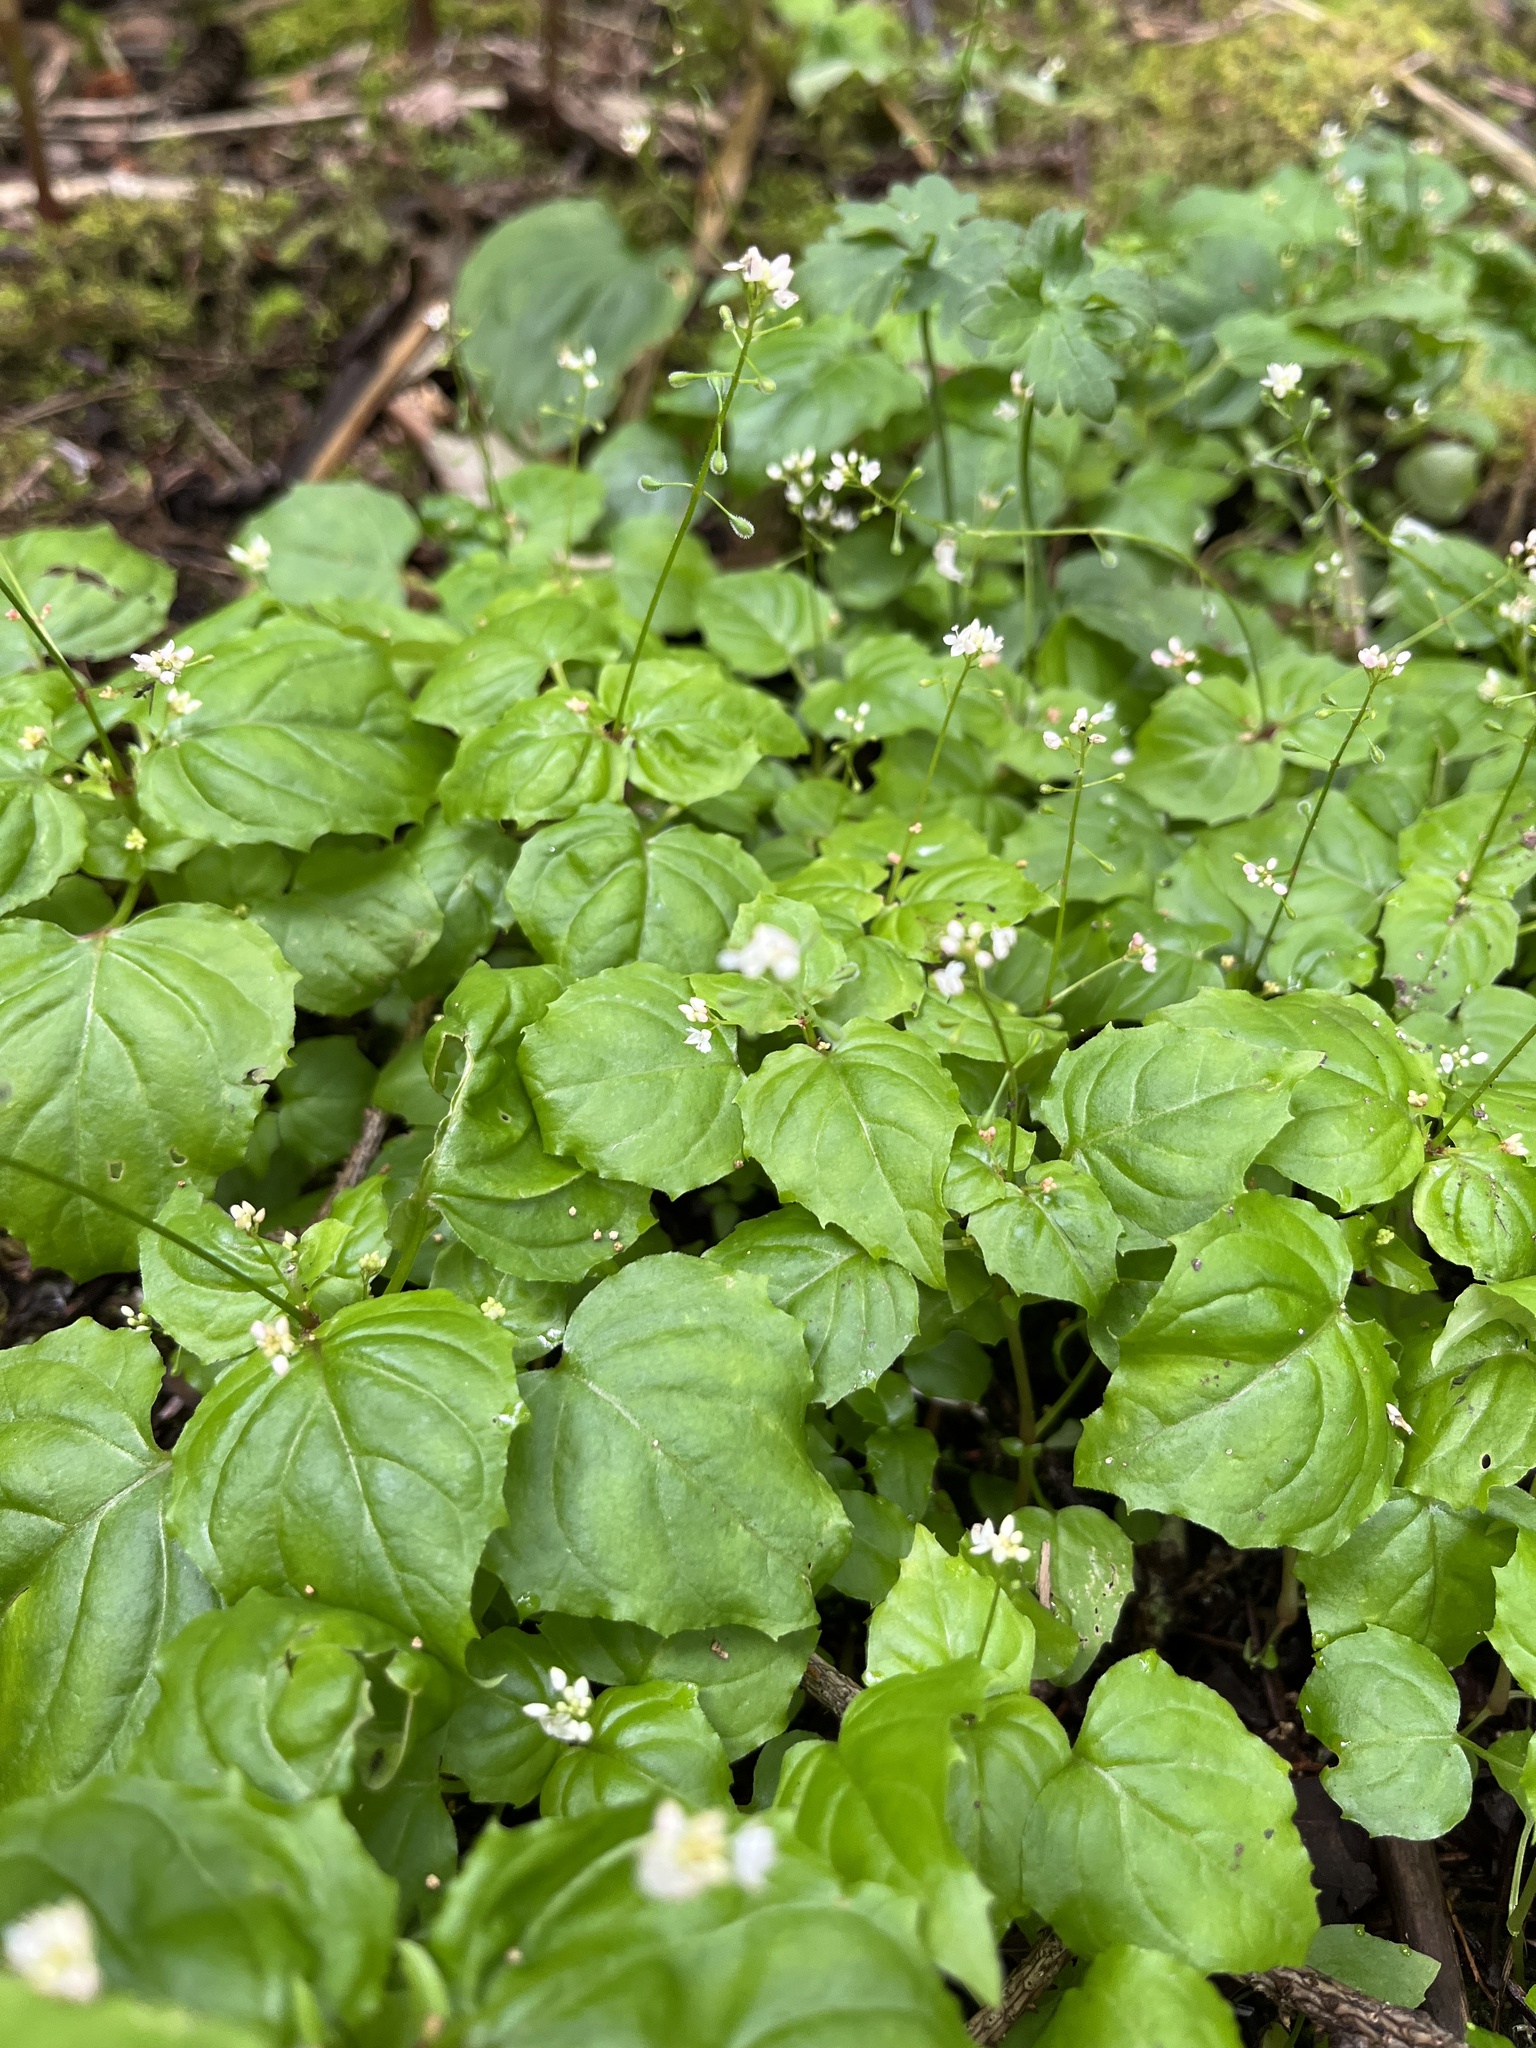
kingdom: Plantae
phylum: Tracheophyta
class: Magnoliopsida
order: Myrtales
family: Onagraceae
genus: Circaea
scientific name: Circaea alpina
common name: Alpine enchanter's-nightshade
